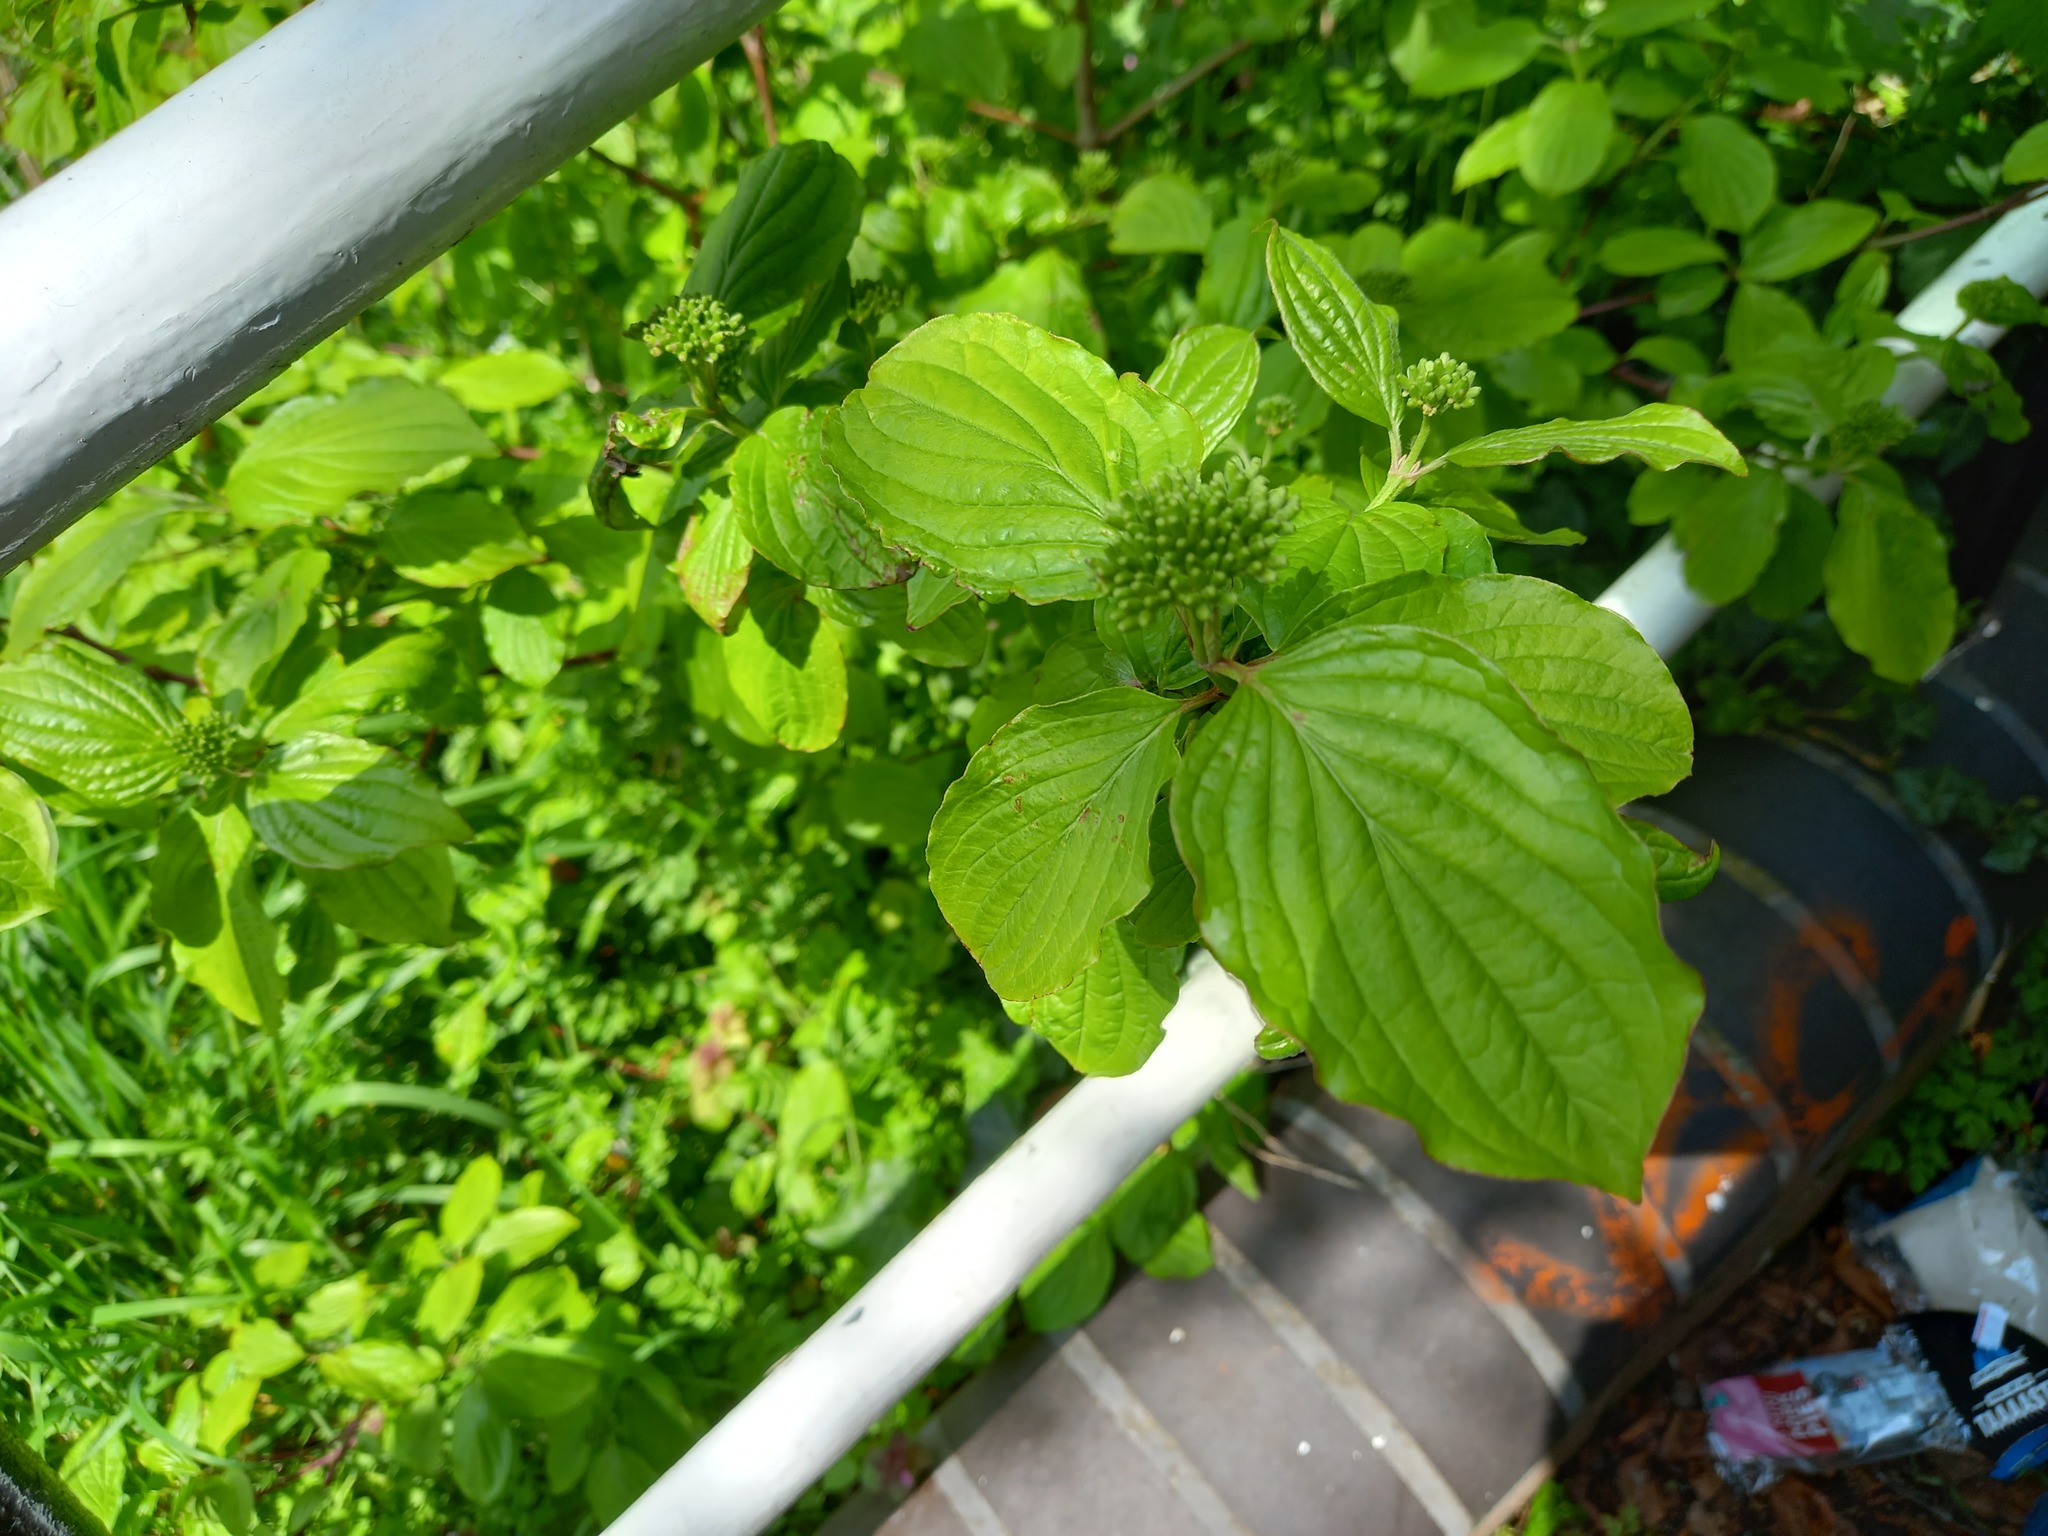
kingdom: Plantae
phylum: Tracheophyta
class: Magnoliopsida
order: Cornales
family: Cornaceae
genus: Cornus
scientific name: Cornus sanguinea
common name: Dogwood
